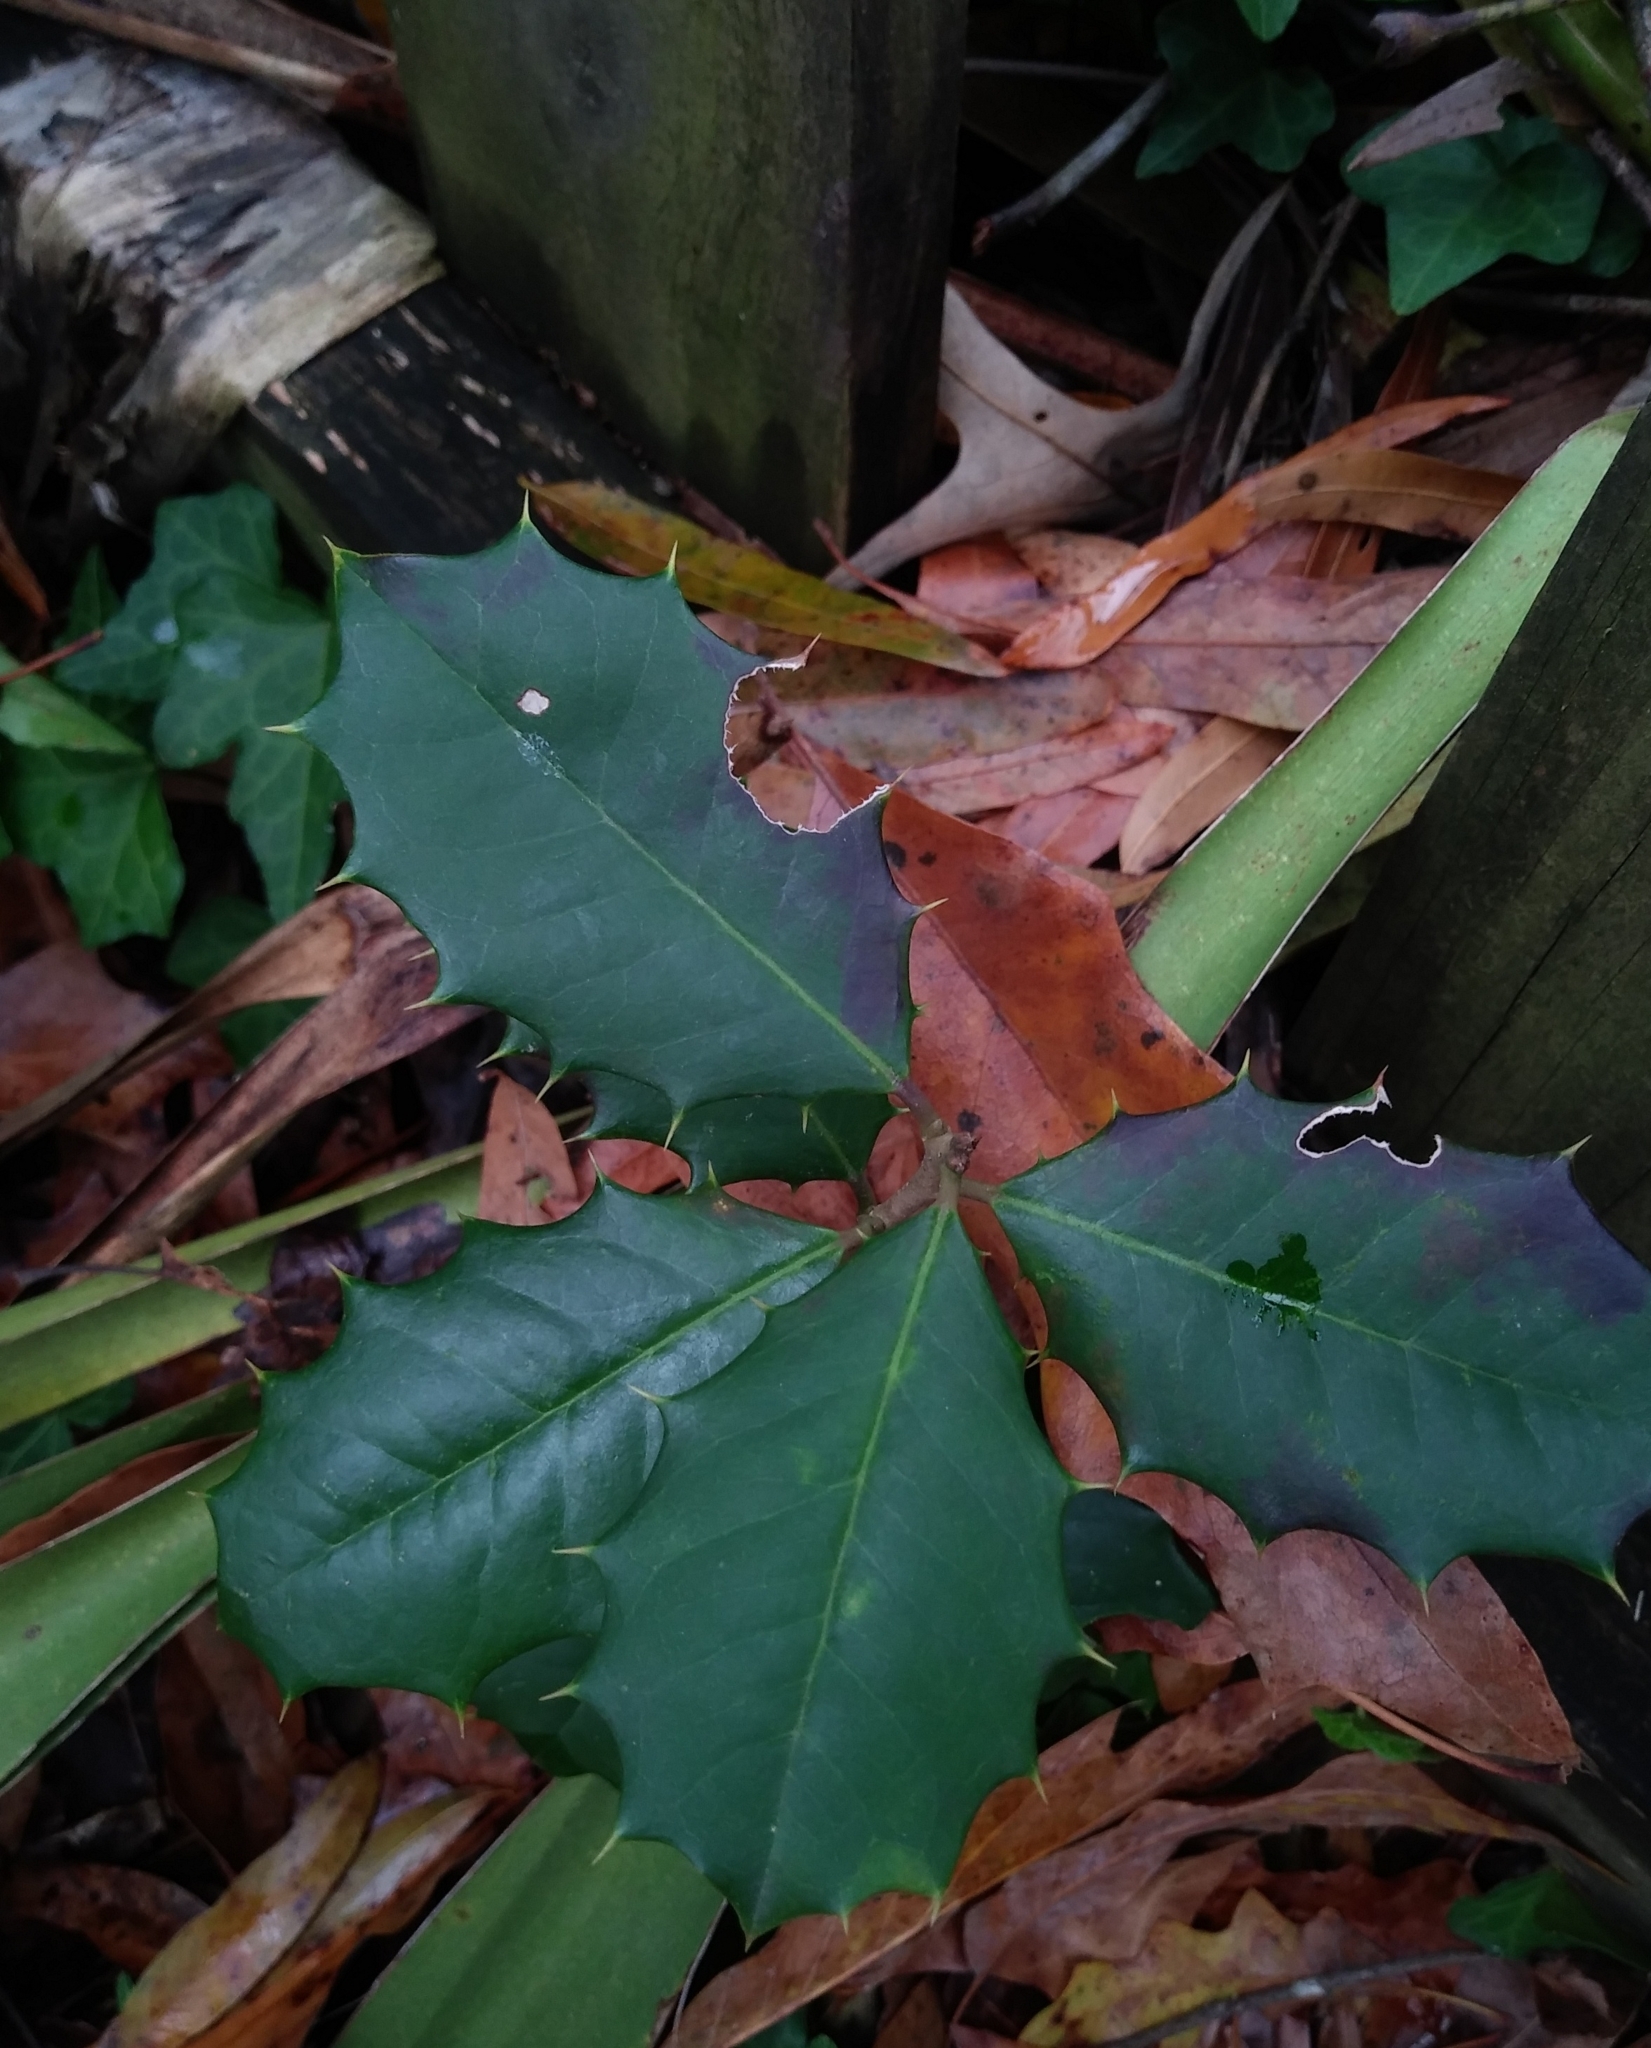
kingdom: Plantae
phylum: Tracheophyta
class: Magnoliopsida
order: Aquifoliales
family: Aquifoliaceae
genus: Ilex
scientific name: Ilex opaca
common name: American holly
